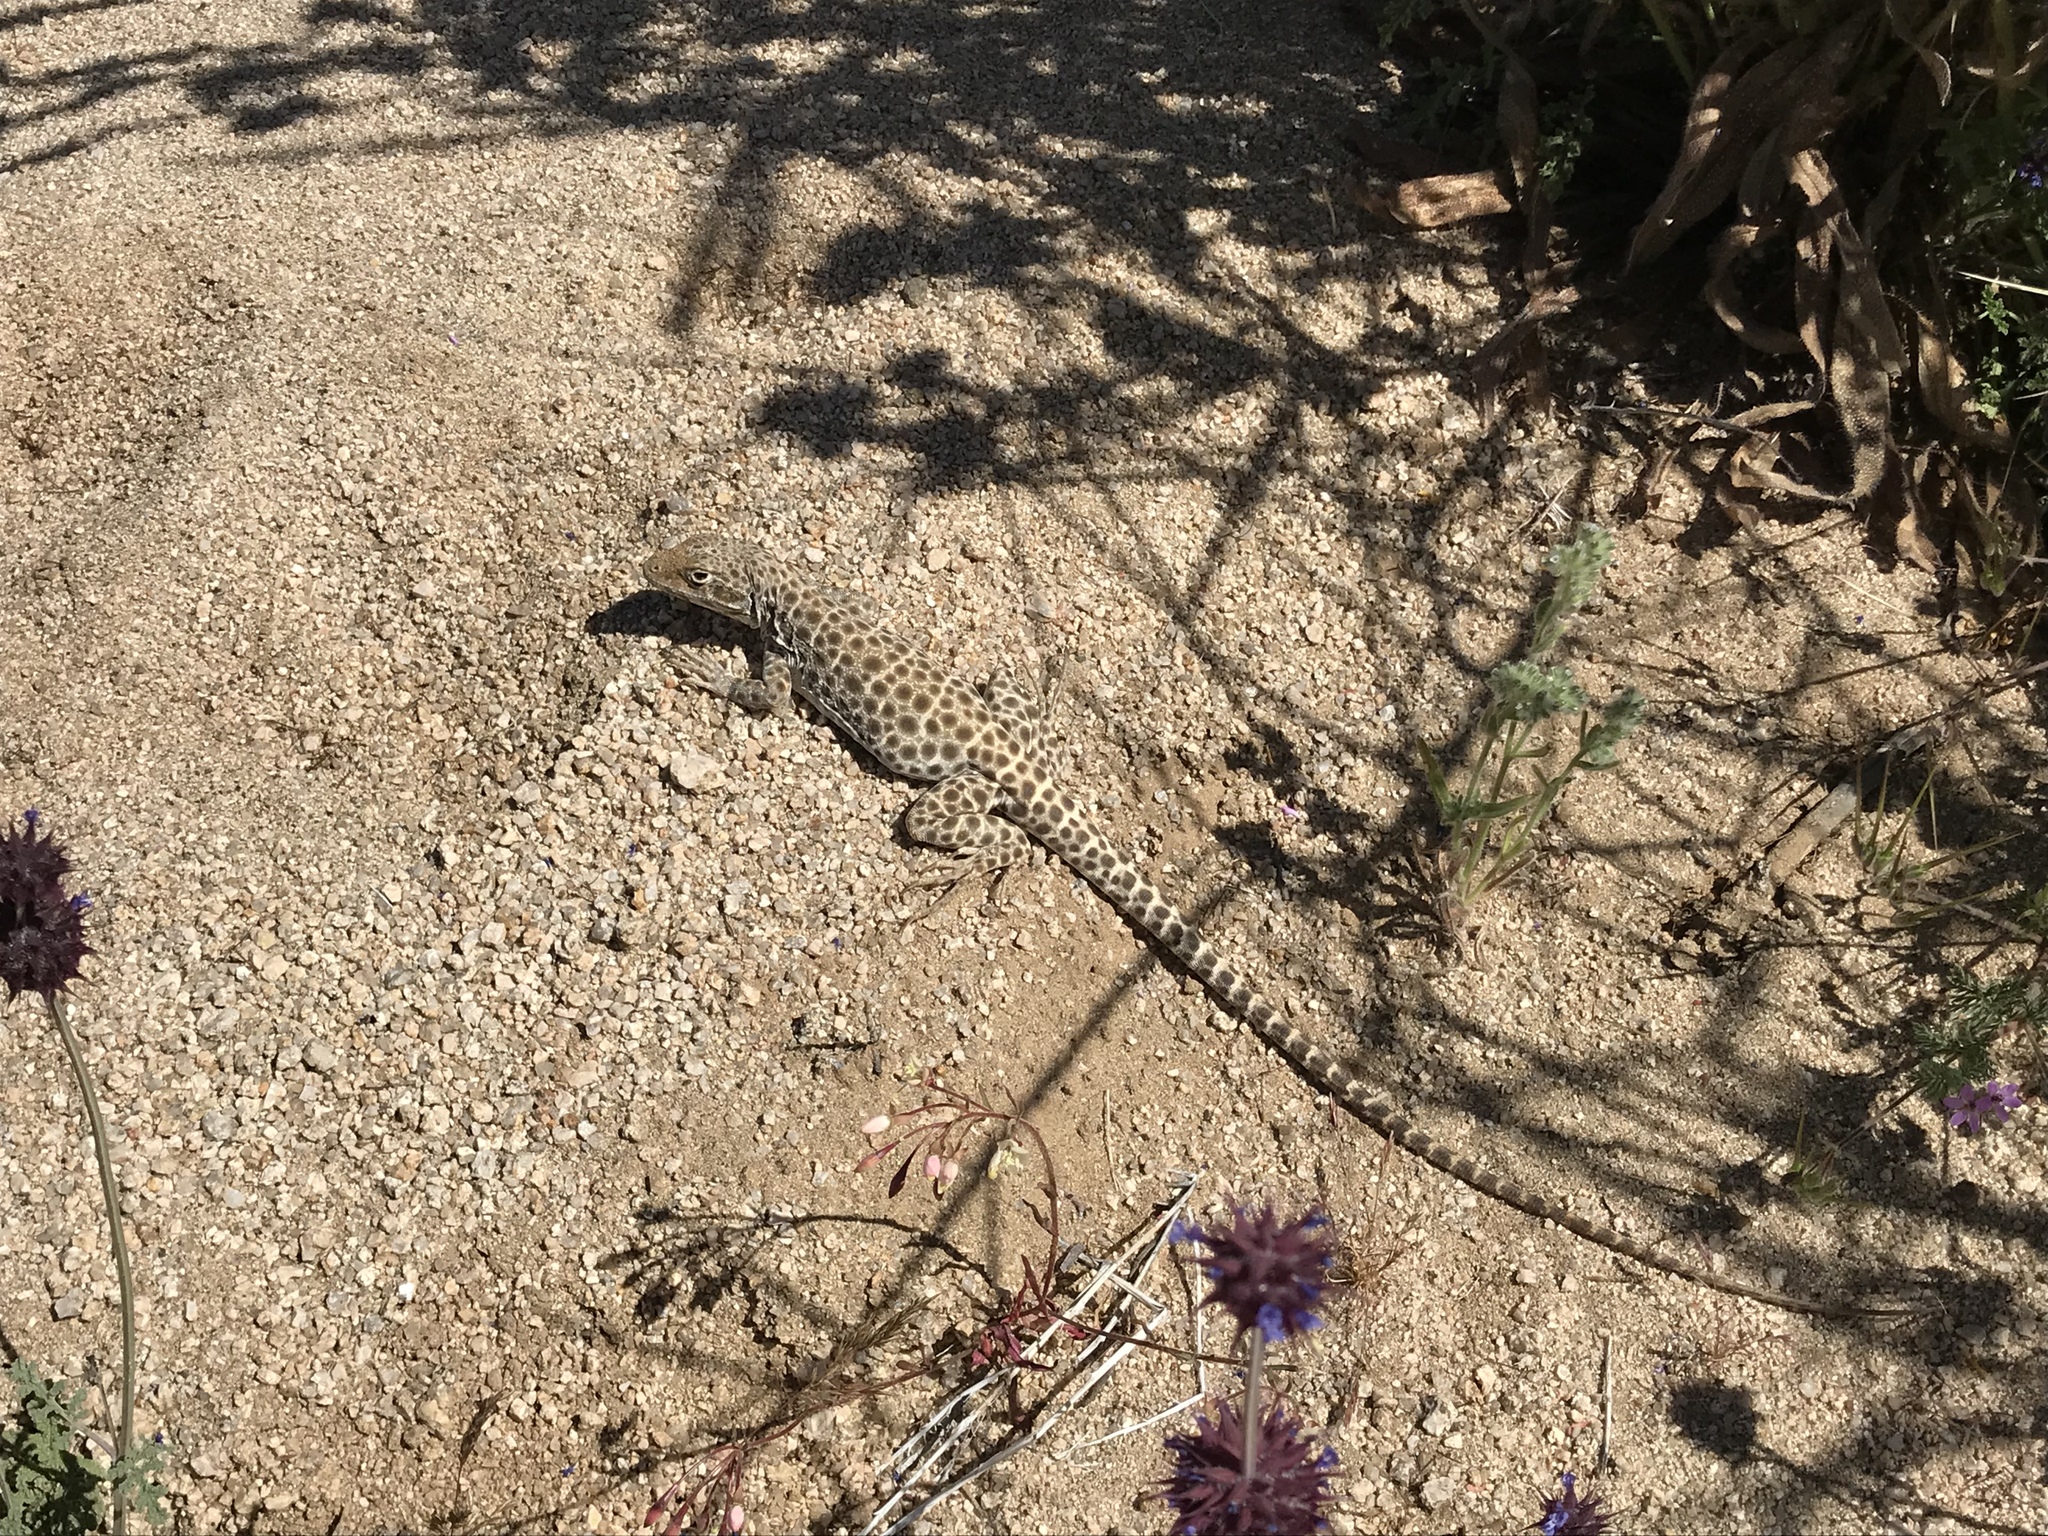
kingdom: Animalia
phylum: Chordata
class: Squamata
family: Crotaphytidae
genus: Gambelia
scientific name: Gambelia wislizenii
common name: Longnose leopard lizard
